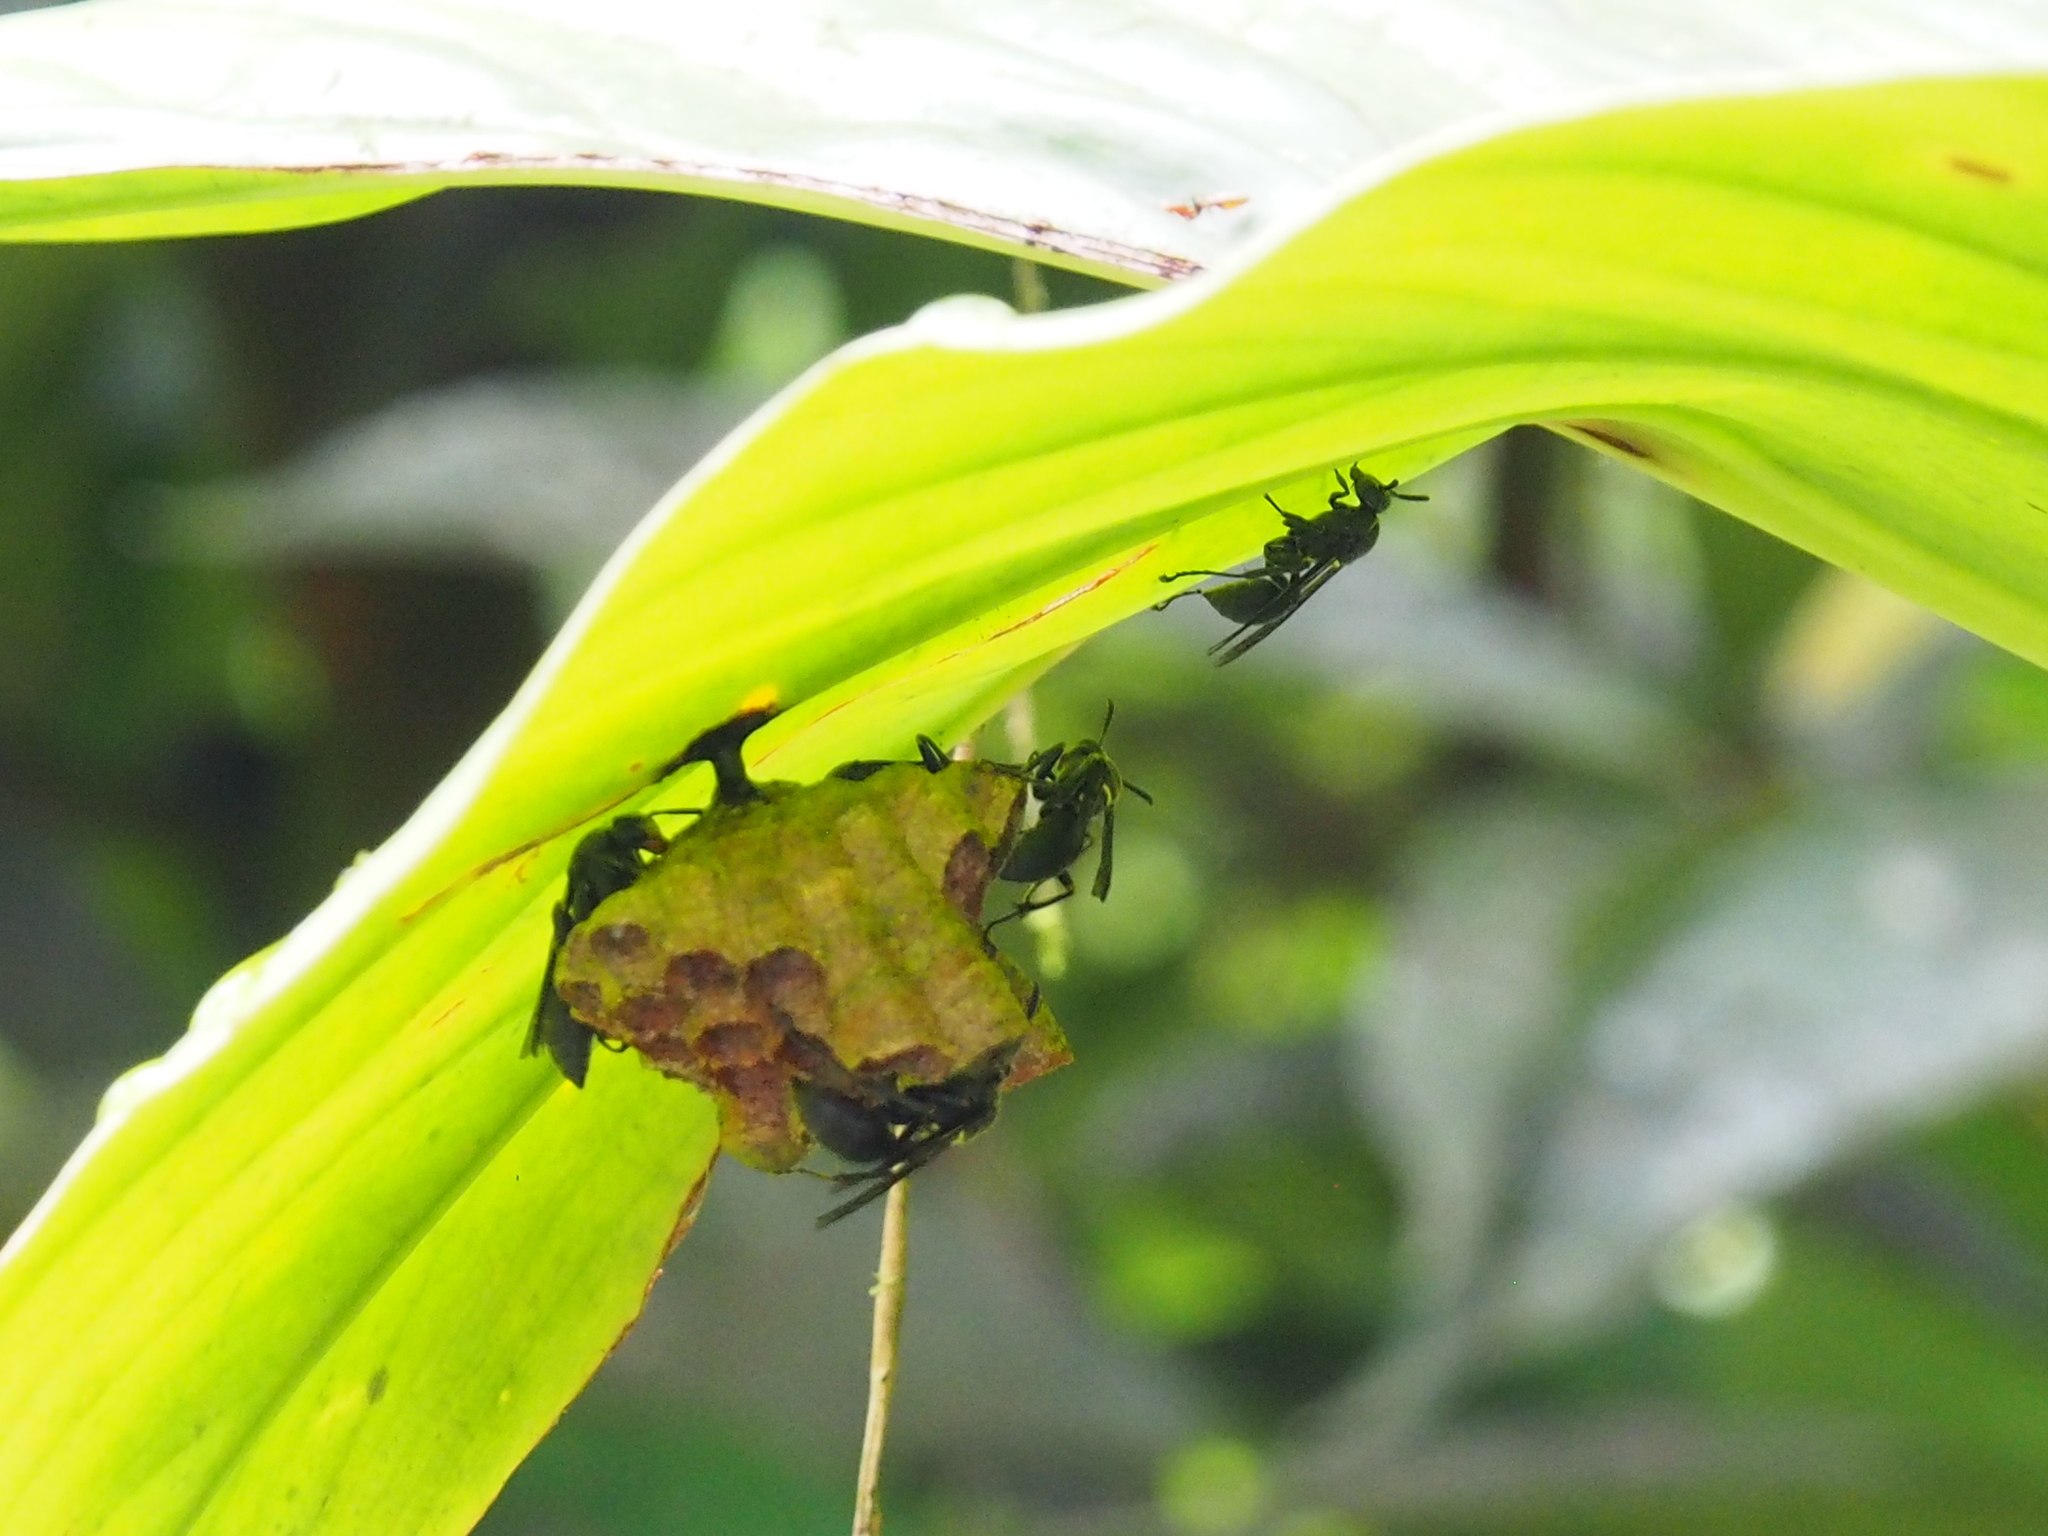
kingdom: Animalia
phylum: Arthropoda
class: Insecta
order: Hymenoptera
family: Vespidae
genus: Mischocyttarus
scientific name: Mischocyttarus tolensis
